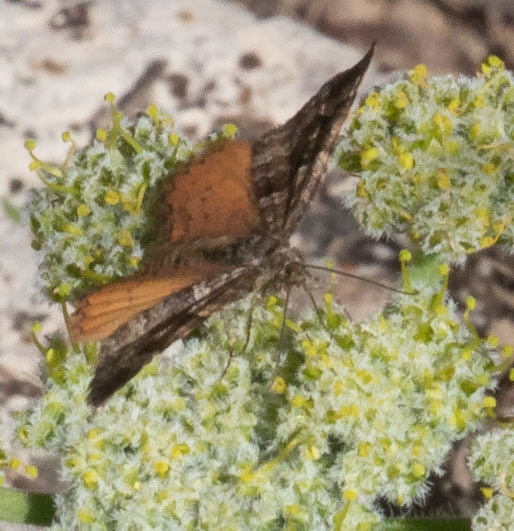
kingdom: Animalia
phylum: Arthropoda
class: Insecta
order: Lepidoptera
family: Geometridae
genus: Epirrhoe
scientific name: Epirrhoe plebeculata
